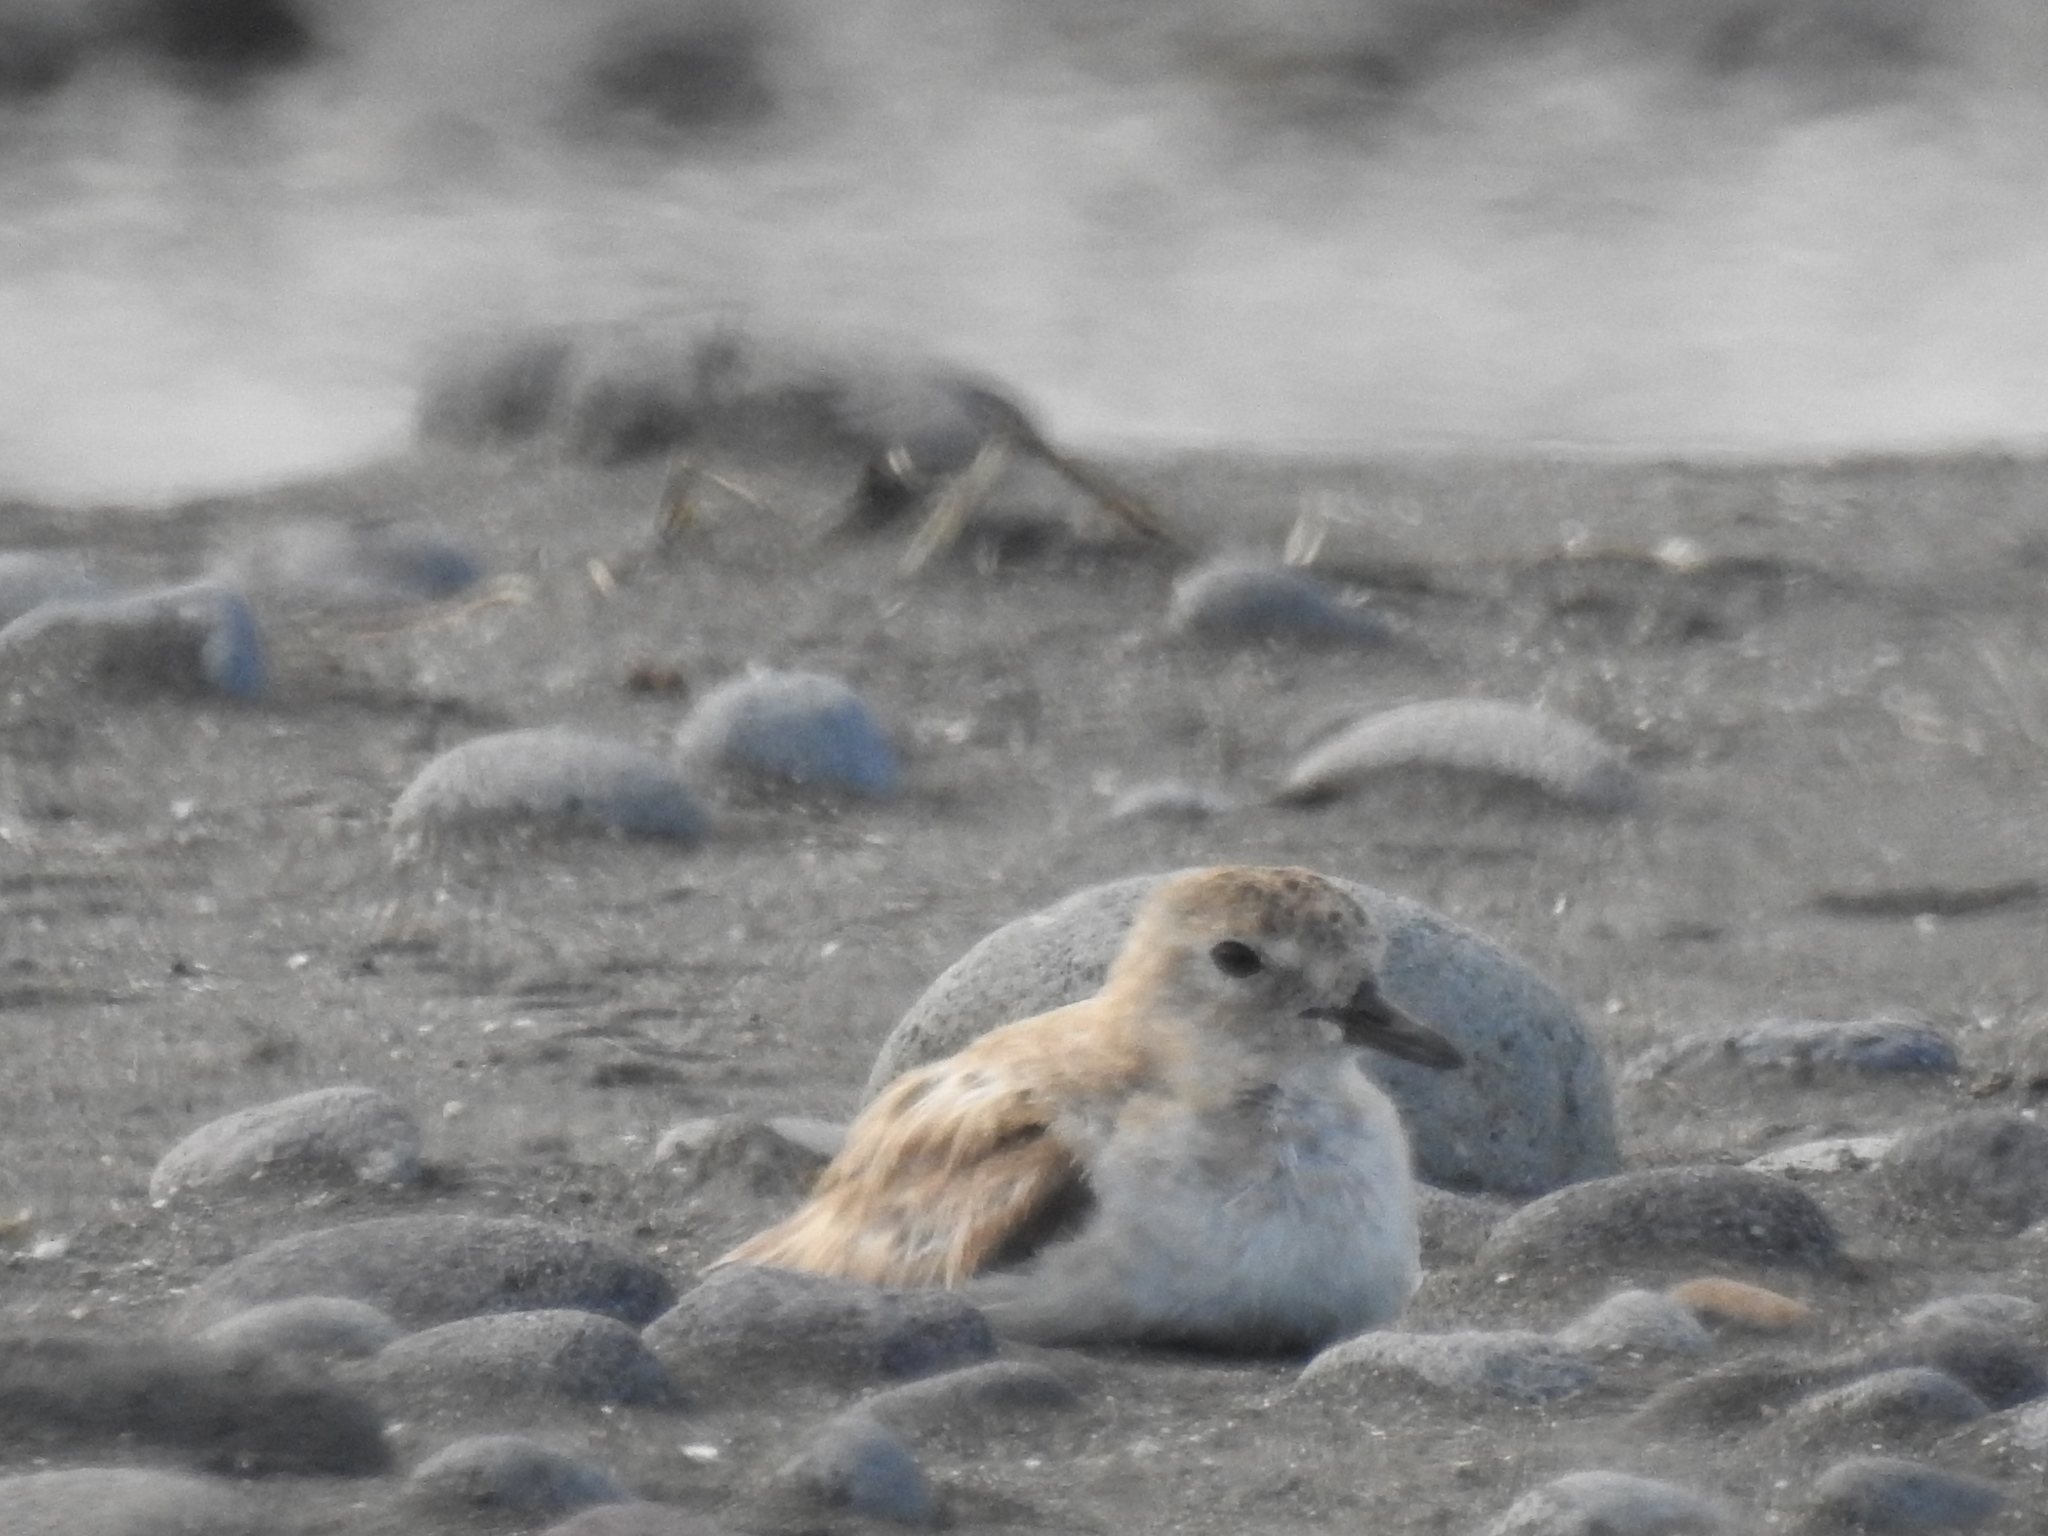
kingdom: Animalia
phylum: Chordata
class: Aves
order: Charadriiformes
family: Charadriidae
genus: Anarhynchus
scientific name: Anarhynchus
